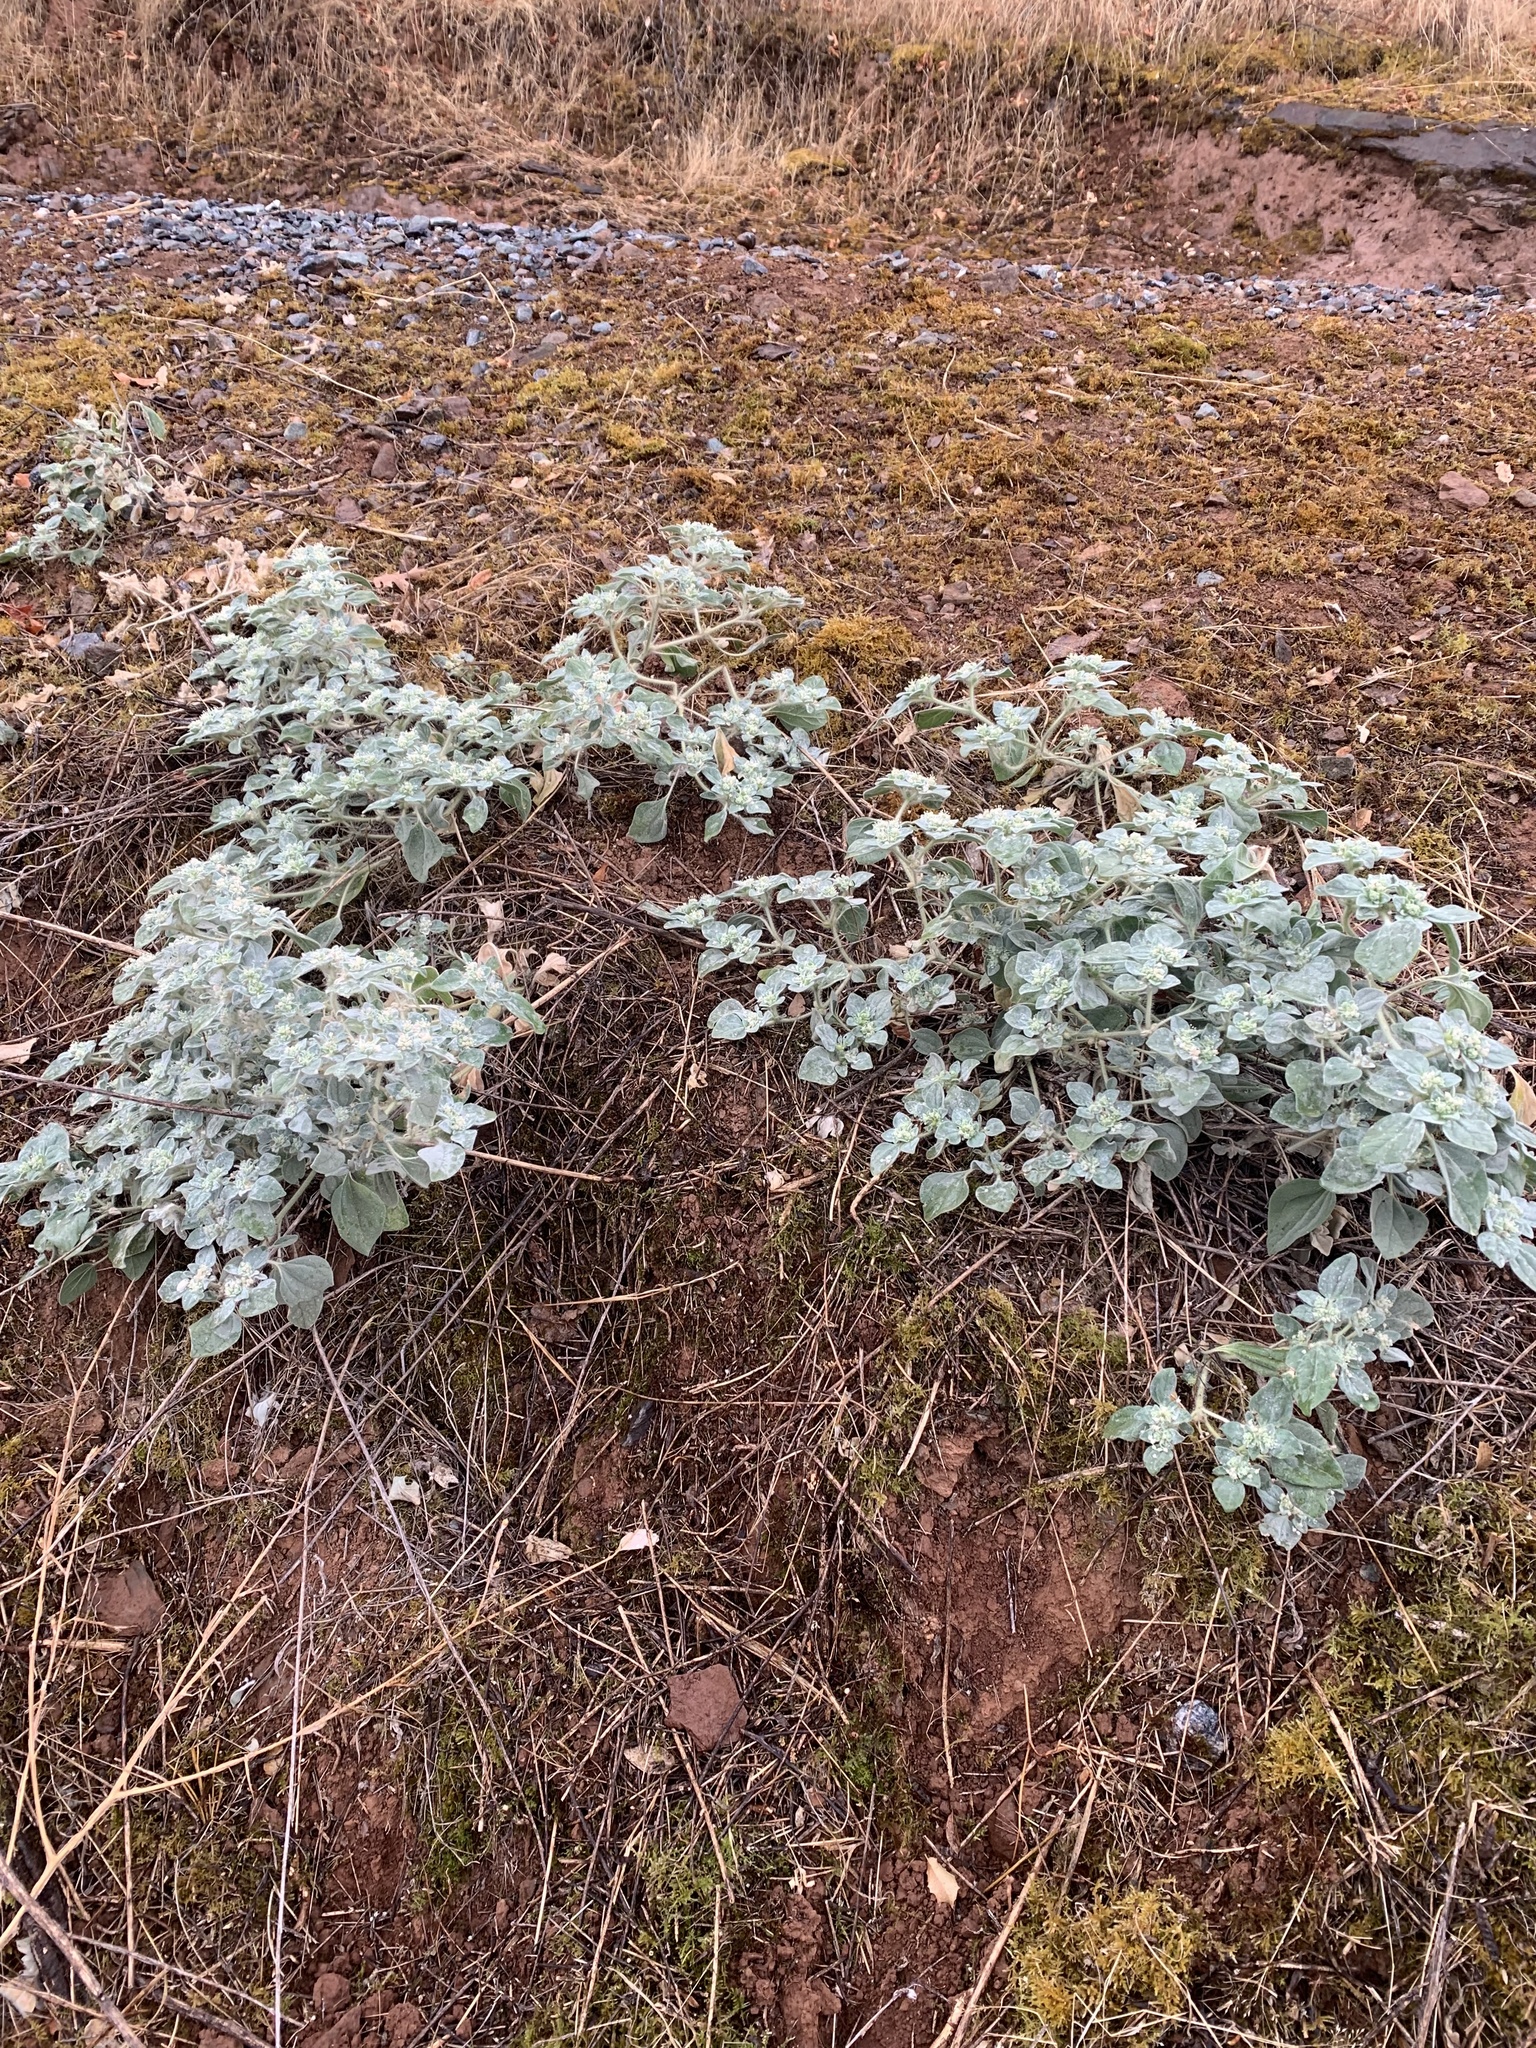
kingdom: Plantae
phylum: Tracheophyta
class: Magnoliopsida
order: Malpighiales
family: Euphorbiaceae
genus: Croton
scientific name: Croton setiger
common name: Dove weed
